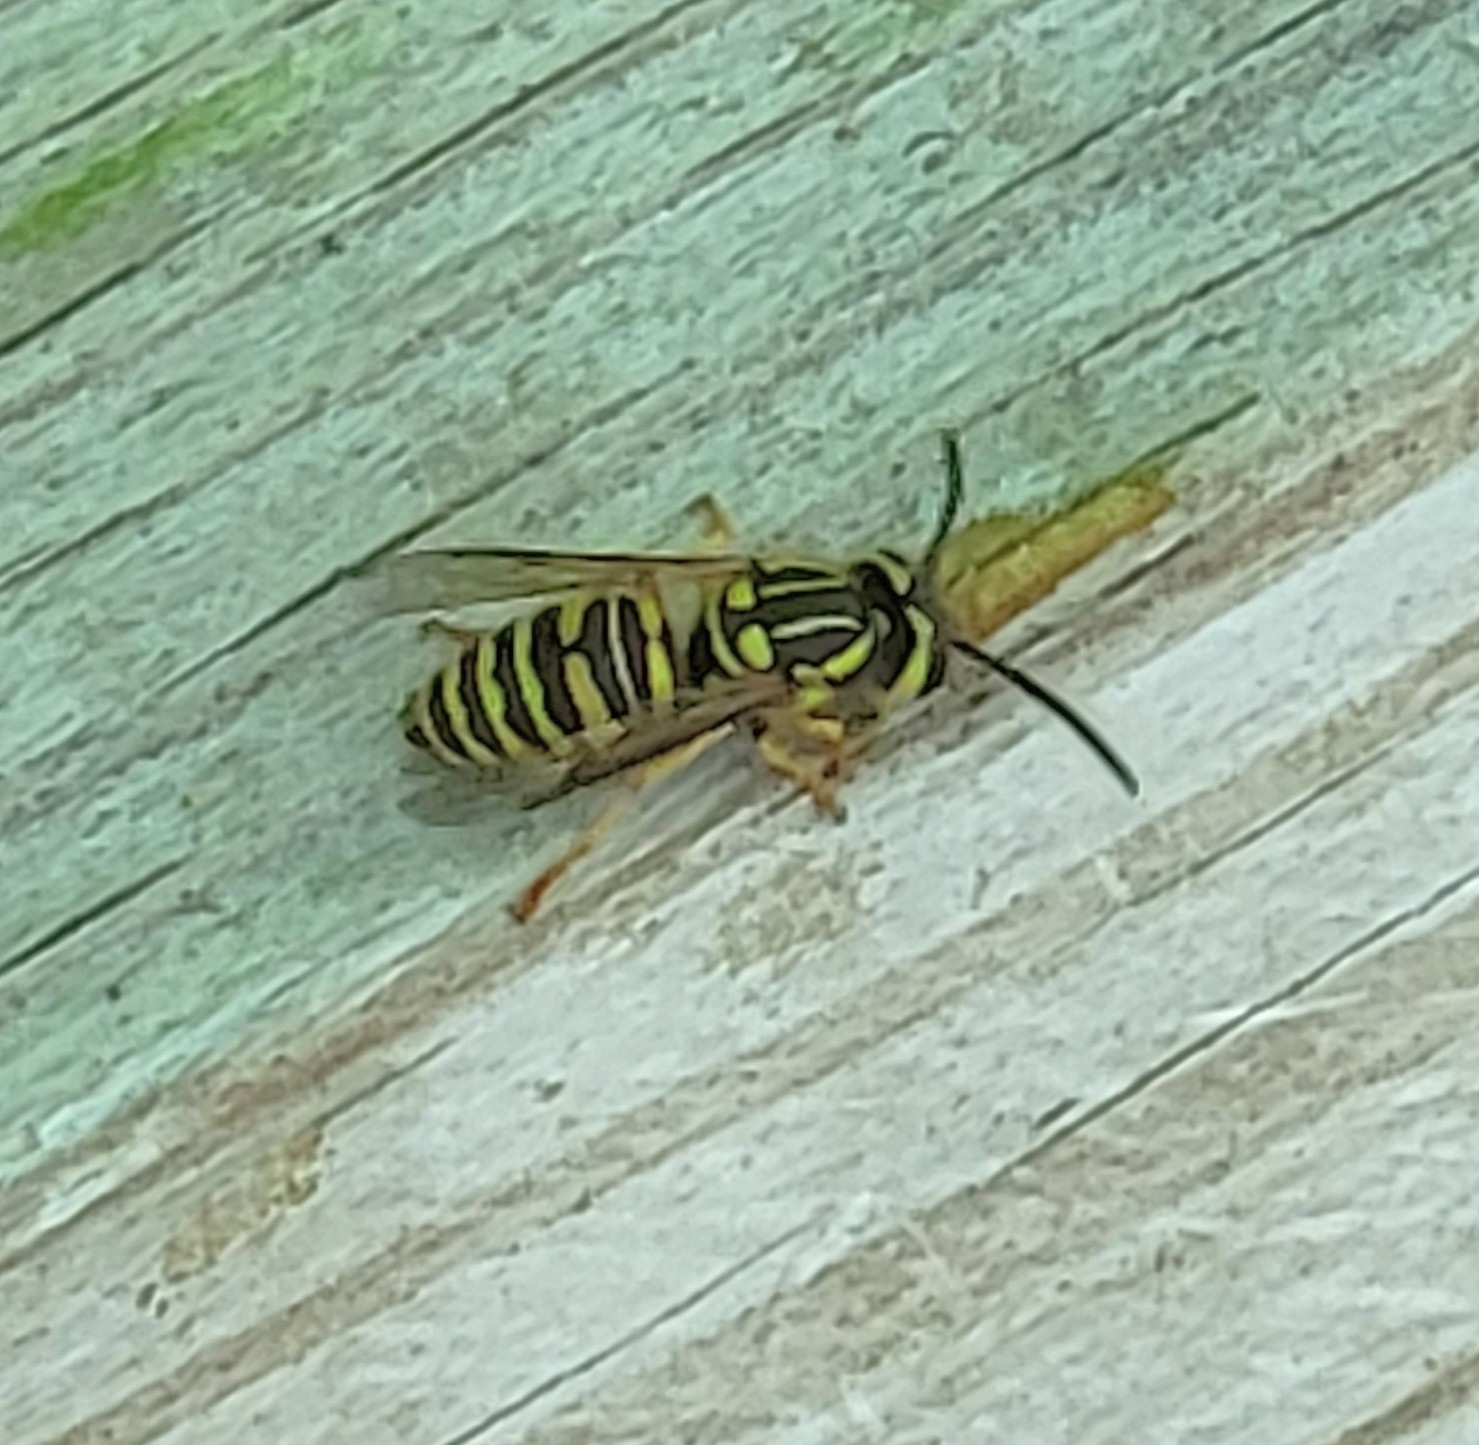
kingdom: Animalia
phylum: Arthropoda
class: Insecta
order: Hymenoptera
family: Vespidae
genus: Vespula
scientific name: Vespula squamosa
